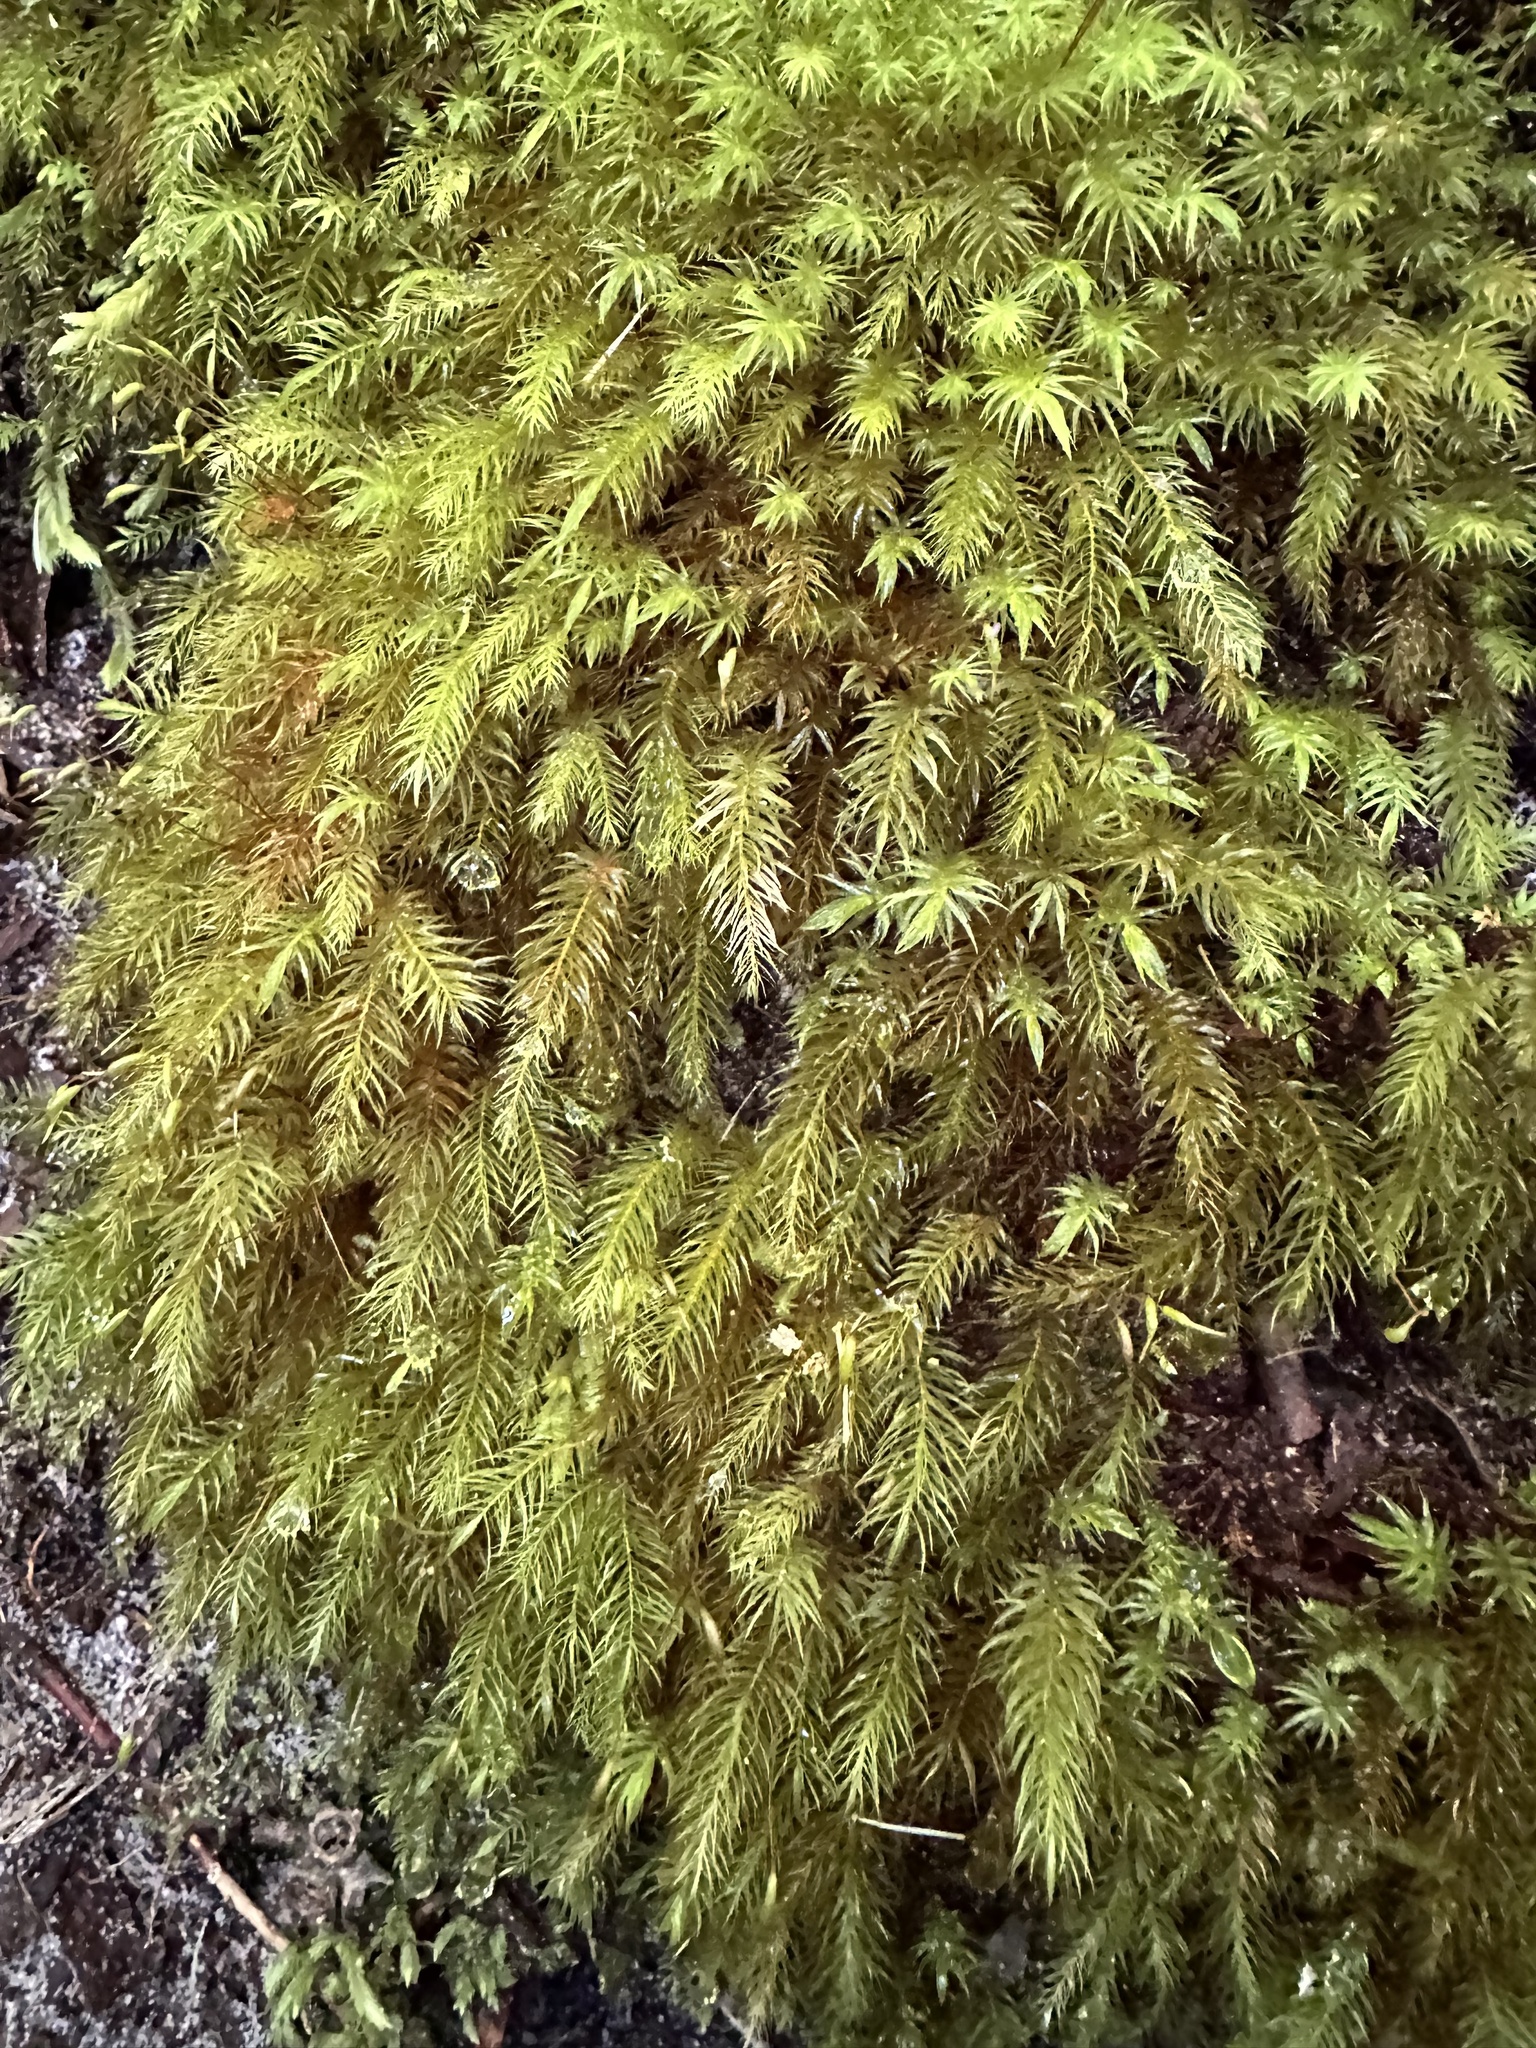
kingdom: Plantae
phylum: Bryophyta
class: Bryopsida
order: Rhizogoniales
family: Calomniaceae
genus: Pyrrhobryum
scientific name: Pyrrhobryum paramattense
